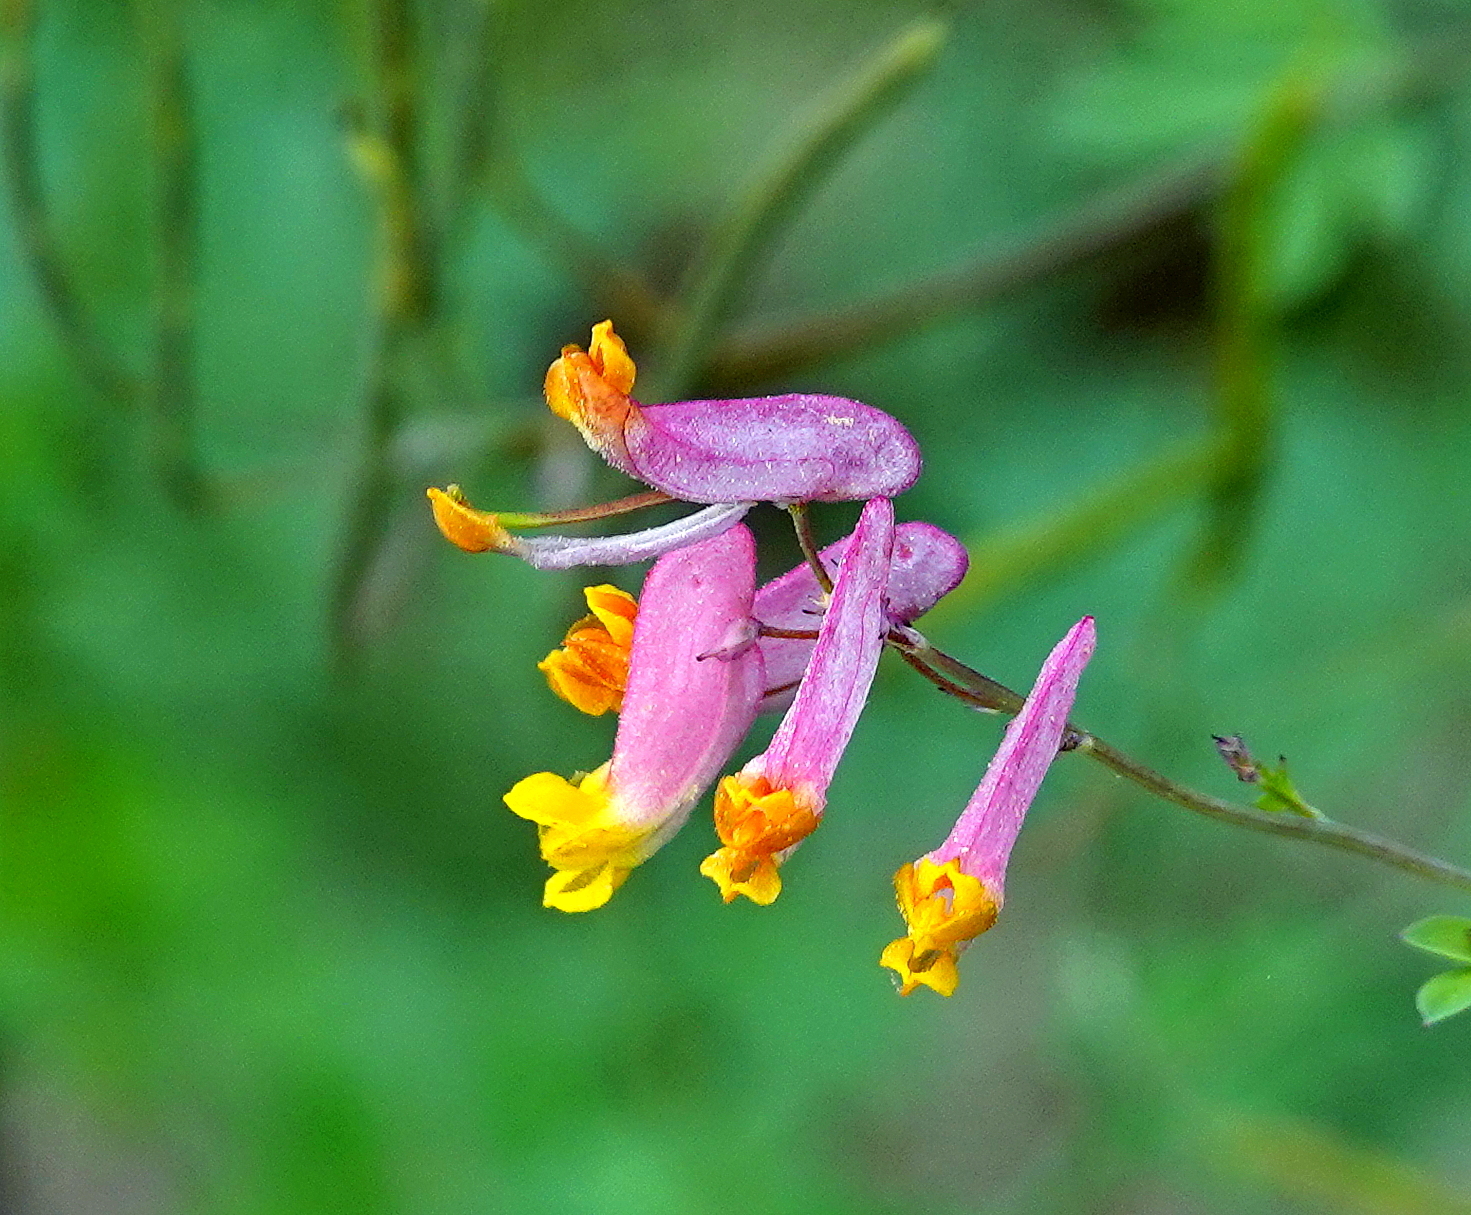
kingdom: Plantae
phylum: Tracheophyta
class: Magnoliopsida
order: Ranunculales
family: Papaveraceae
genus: Capnoides
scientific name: Capnoides sempervirens
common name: Rock harlequin
